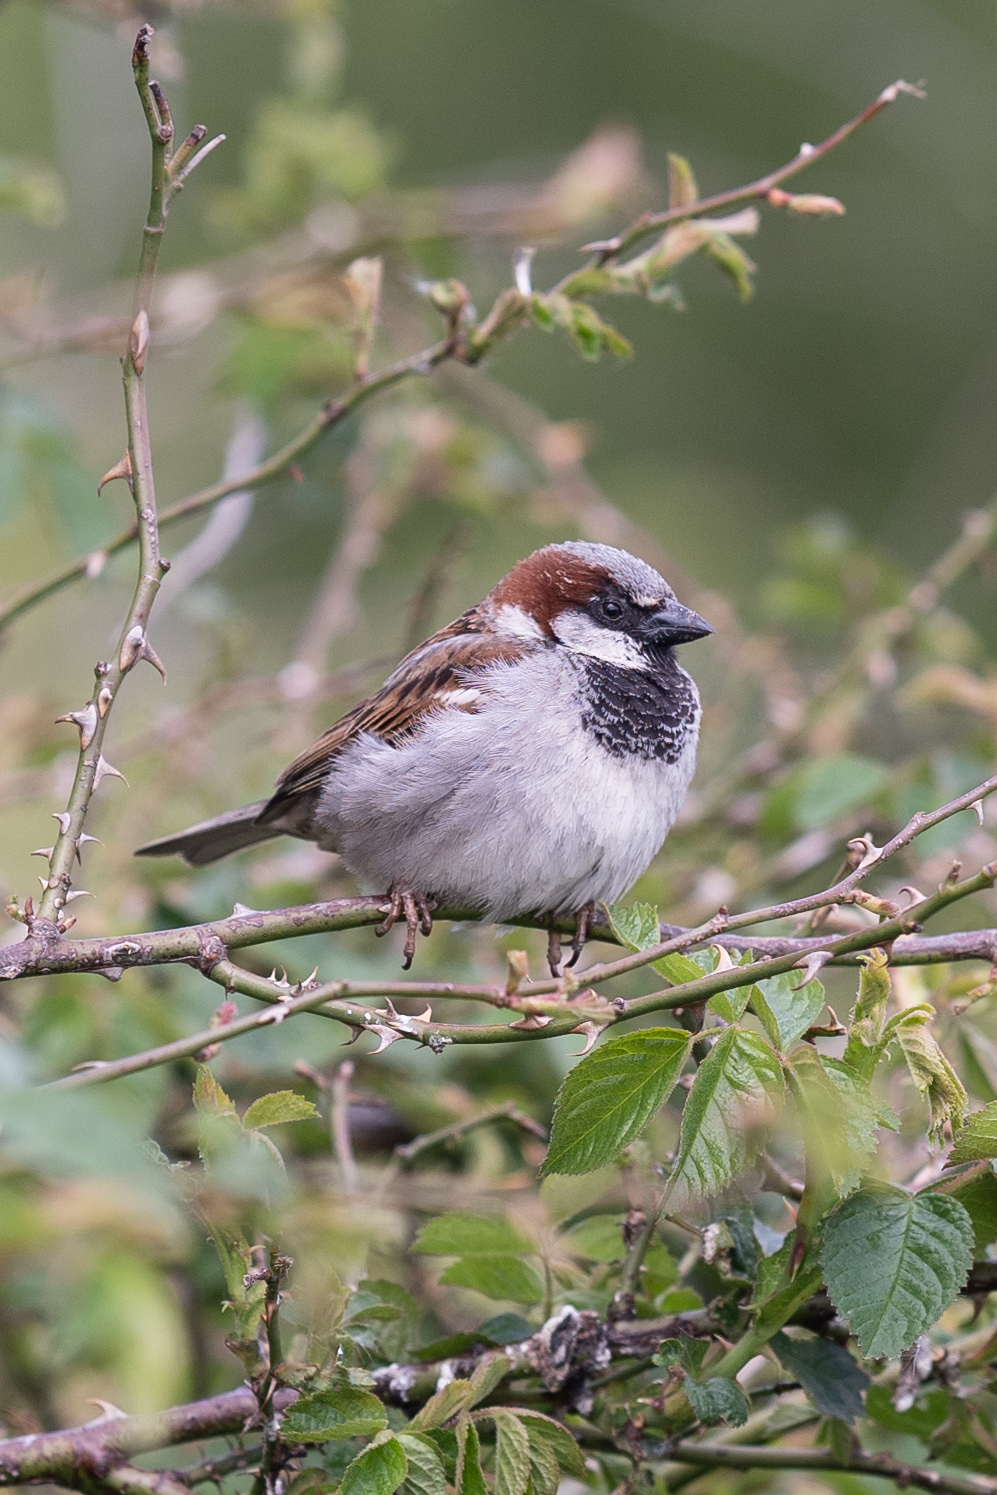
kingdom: Animalia
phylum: Chordata
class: Aves
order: Passeriformes
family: Passeridae
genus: Passer
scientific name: Passer domesticus
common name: House sparrow
